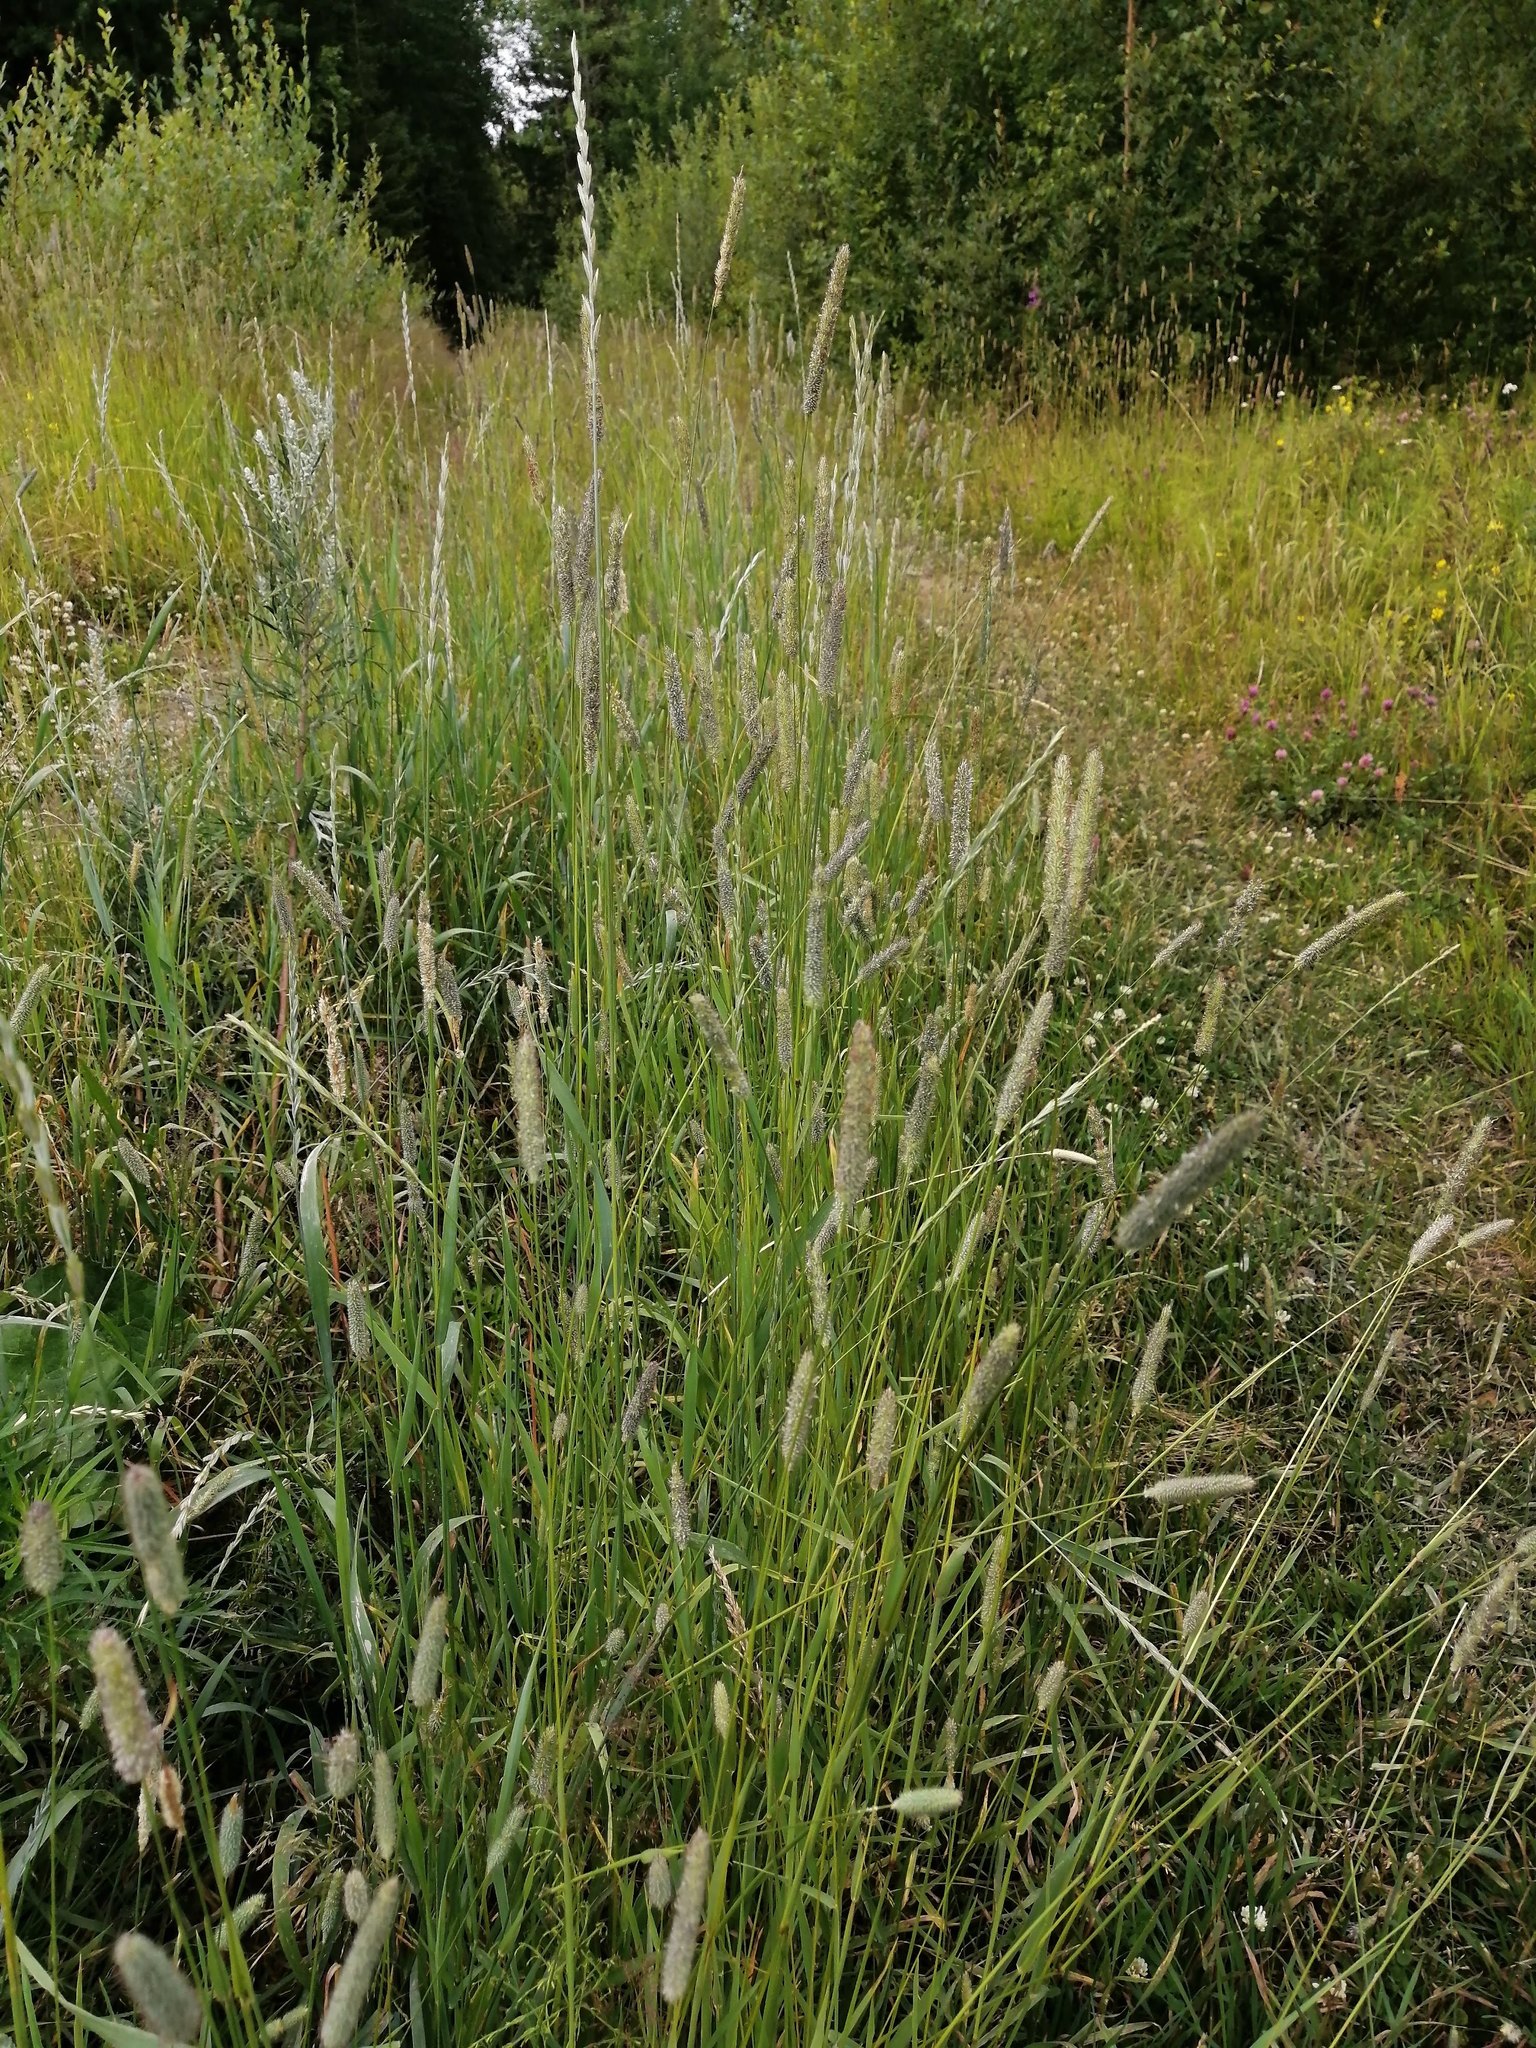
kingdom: Plantae
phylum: Tracheophyta
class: Liliopsida
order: Poales
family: Poaceae
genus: Phleum
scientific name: Phleum pratense
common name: Timothy grass
